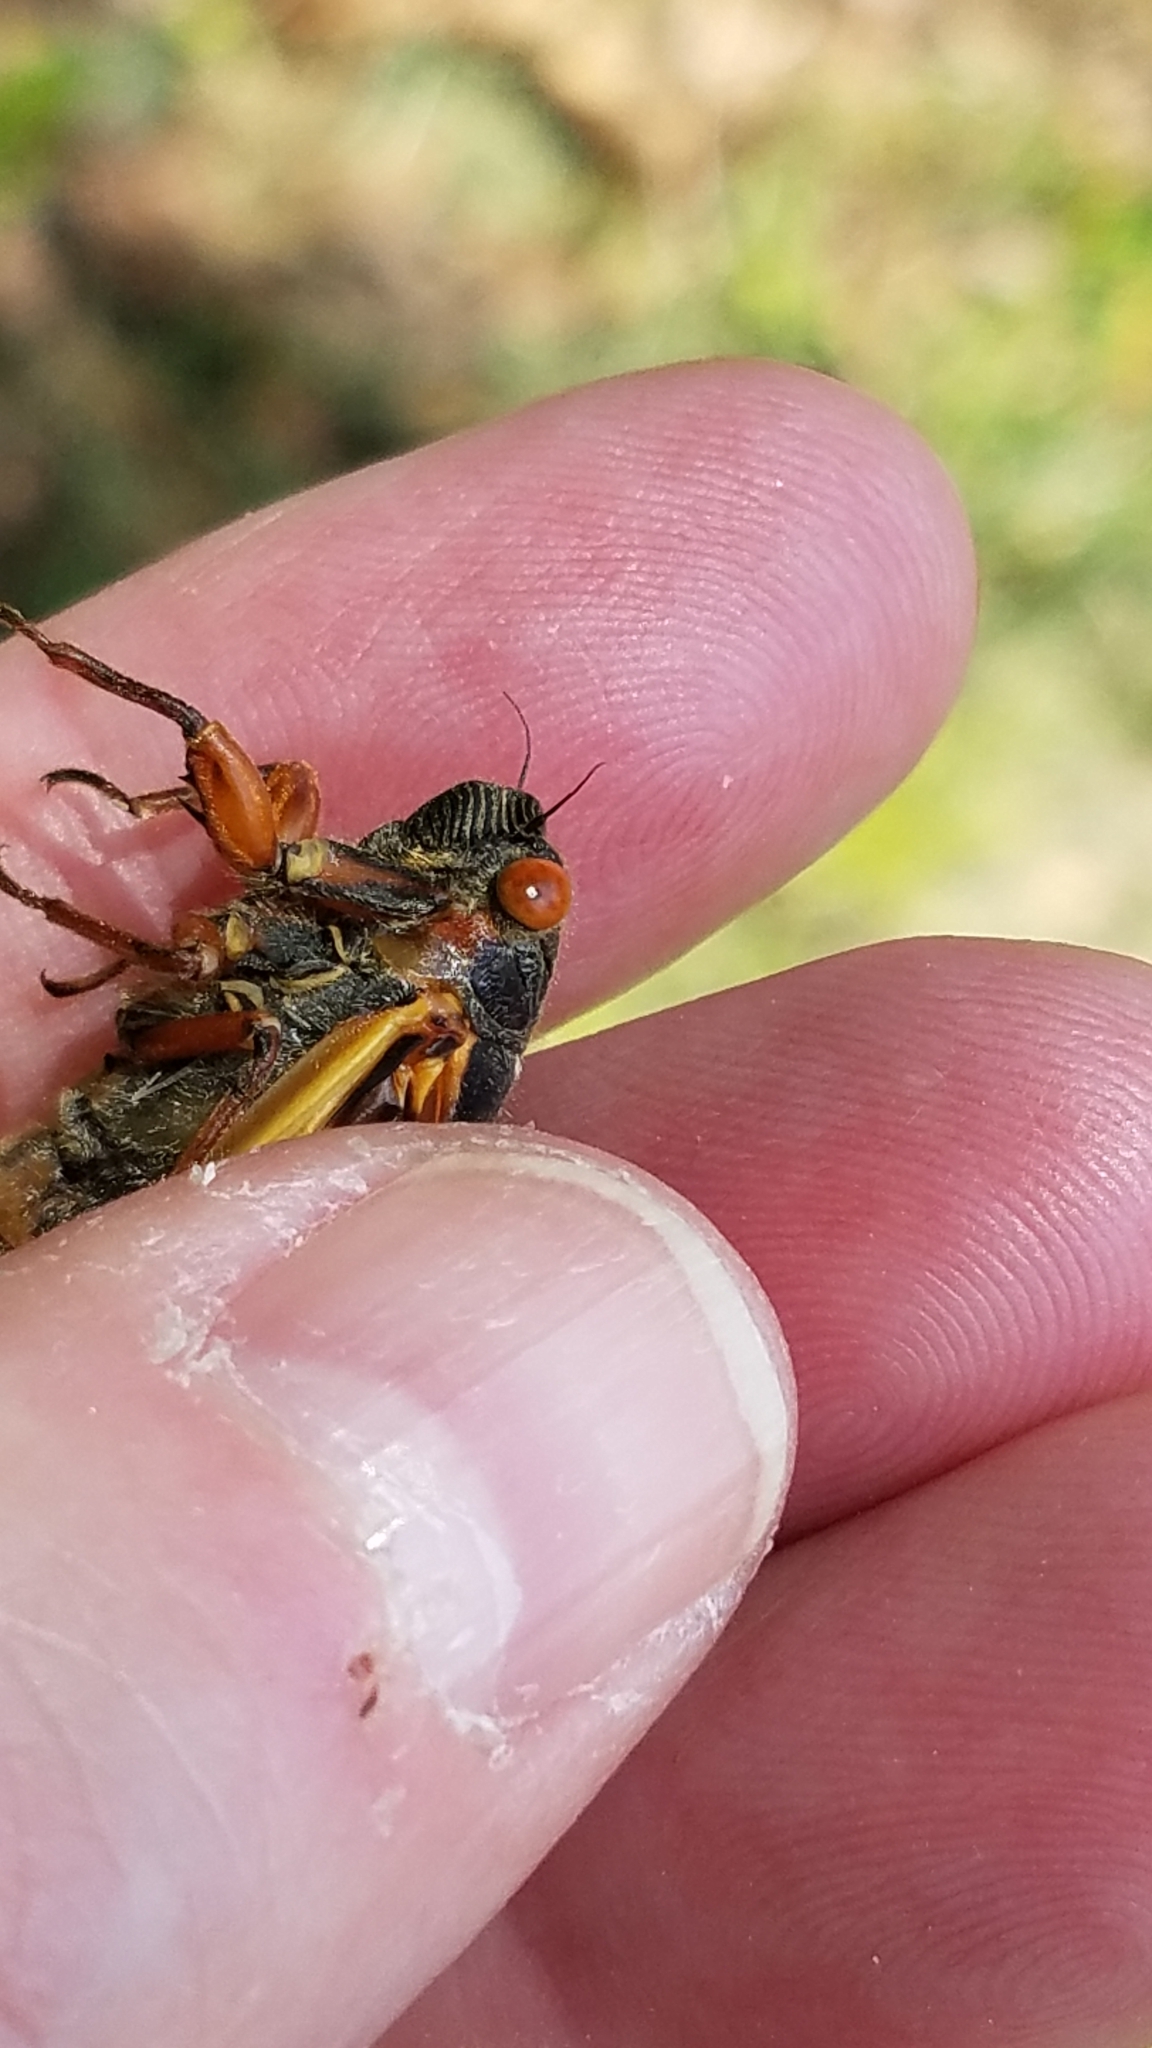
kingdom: Animalia
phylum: Arthropoda
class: Insecta
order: Hemiptera
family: Cicadidae
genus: Magicicada
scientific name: Magicicada septendecim
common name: Periodical cicada
